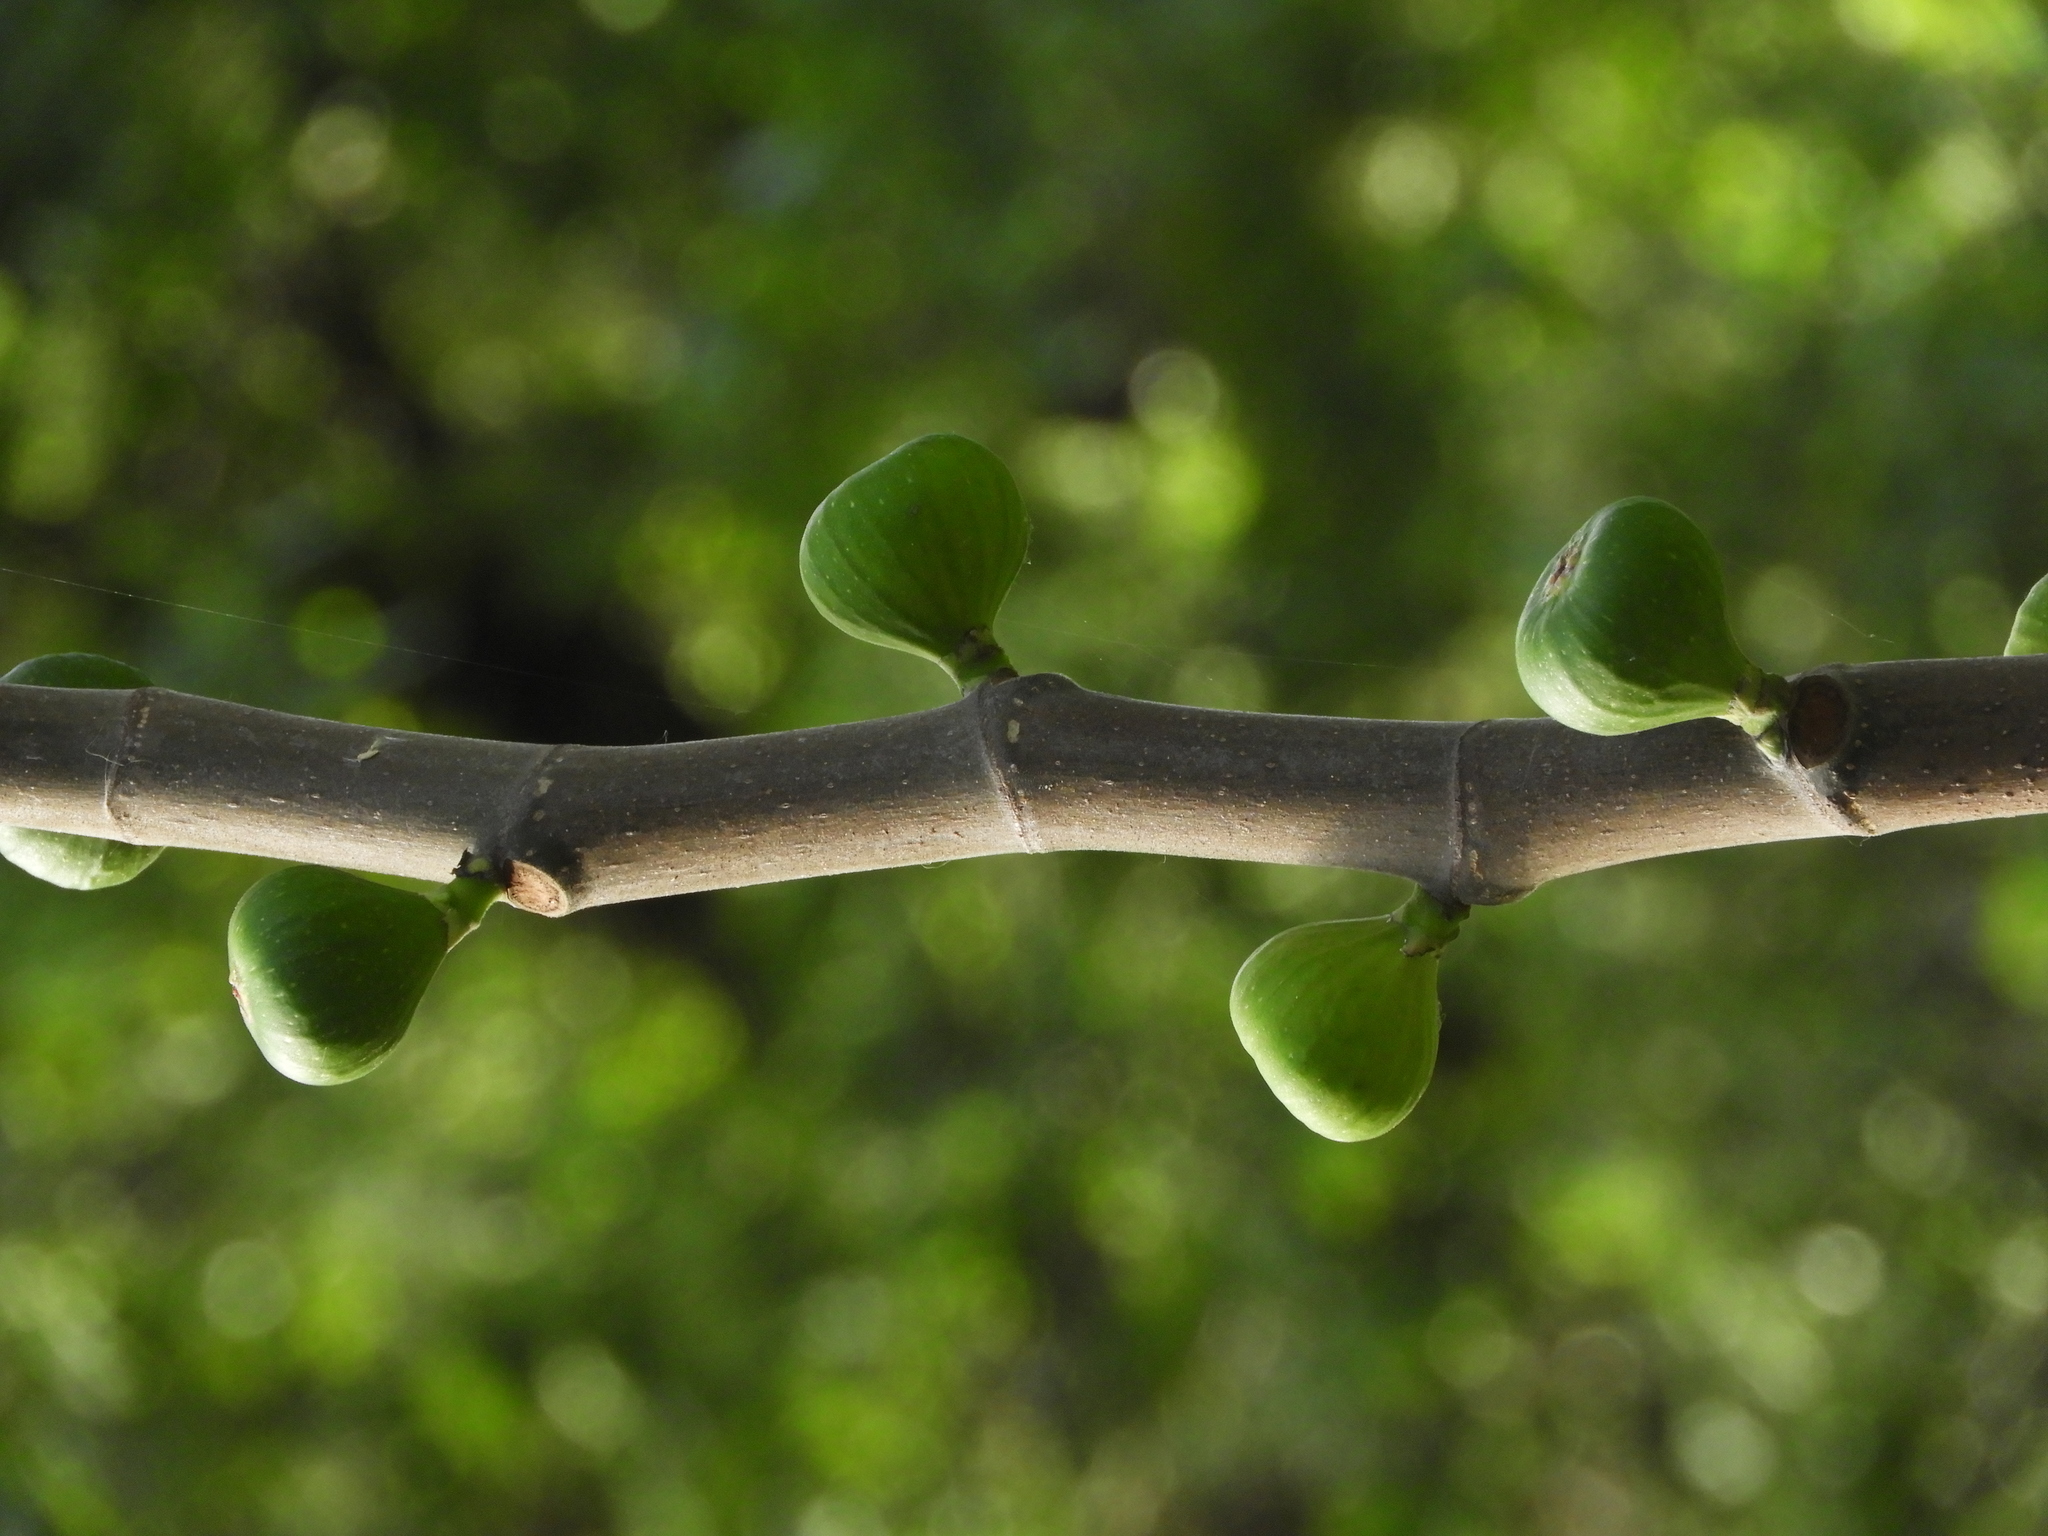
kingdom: Plantae
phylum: Tracheophyta
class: Magnoliopsida
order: Rosales
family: Moraceae
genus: Ficus
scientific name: Ficus carica
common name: Fig
